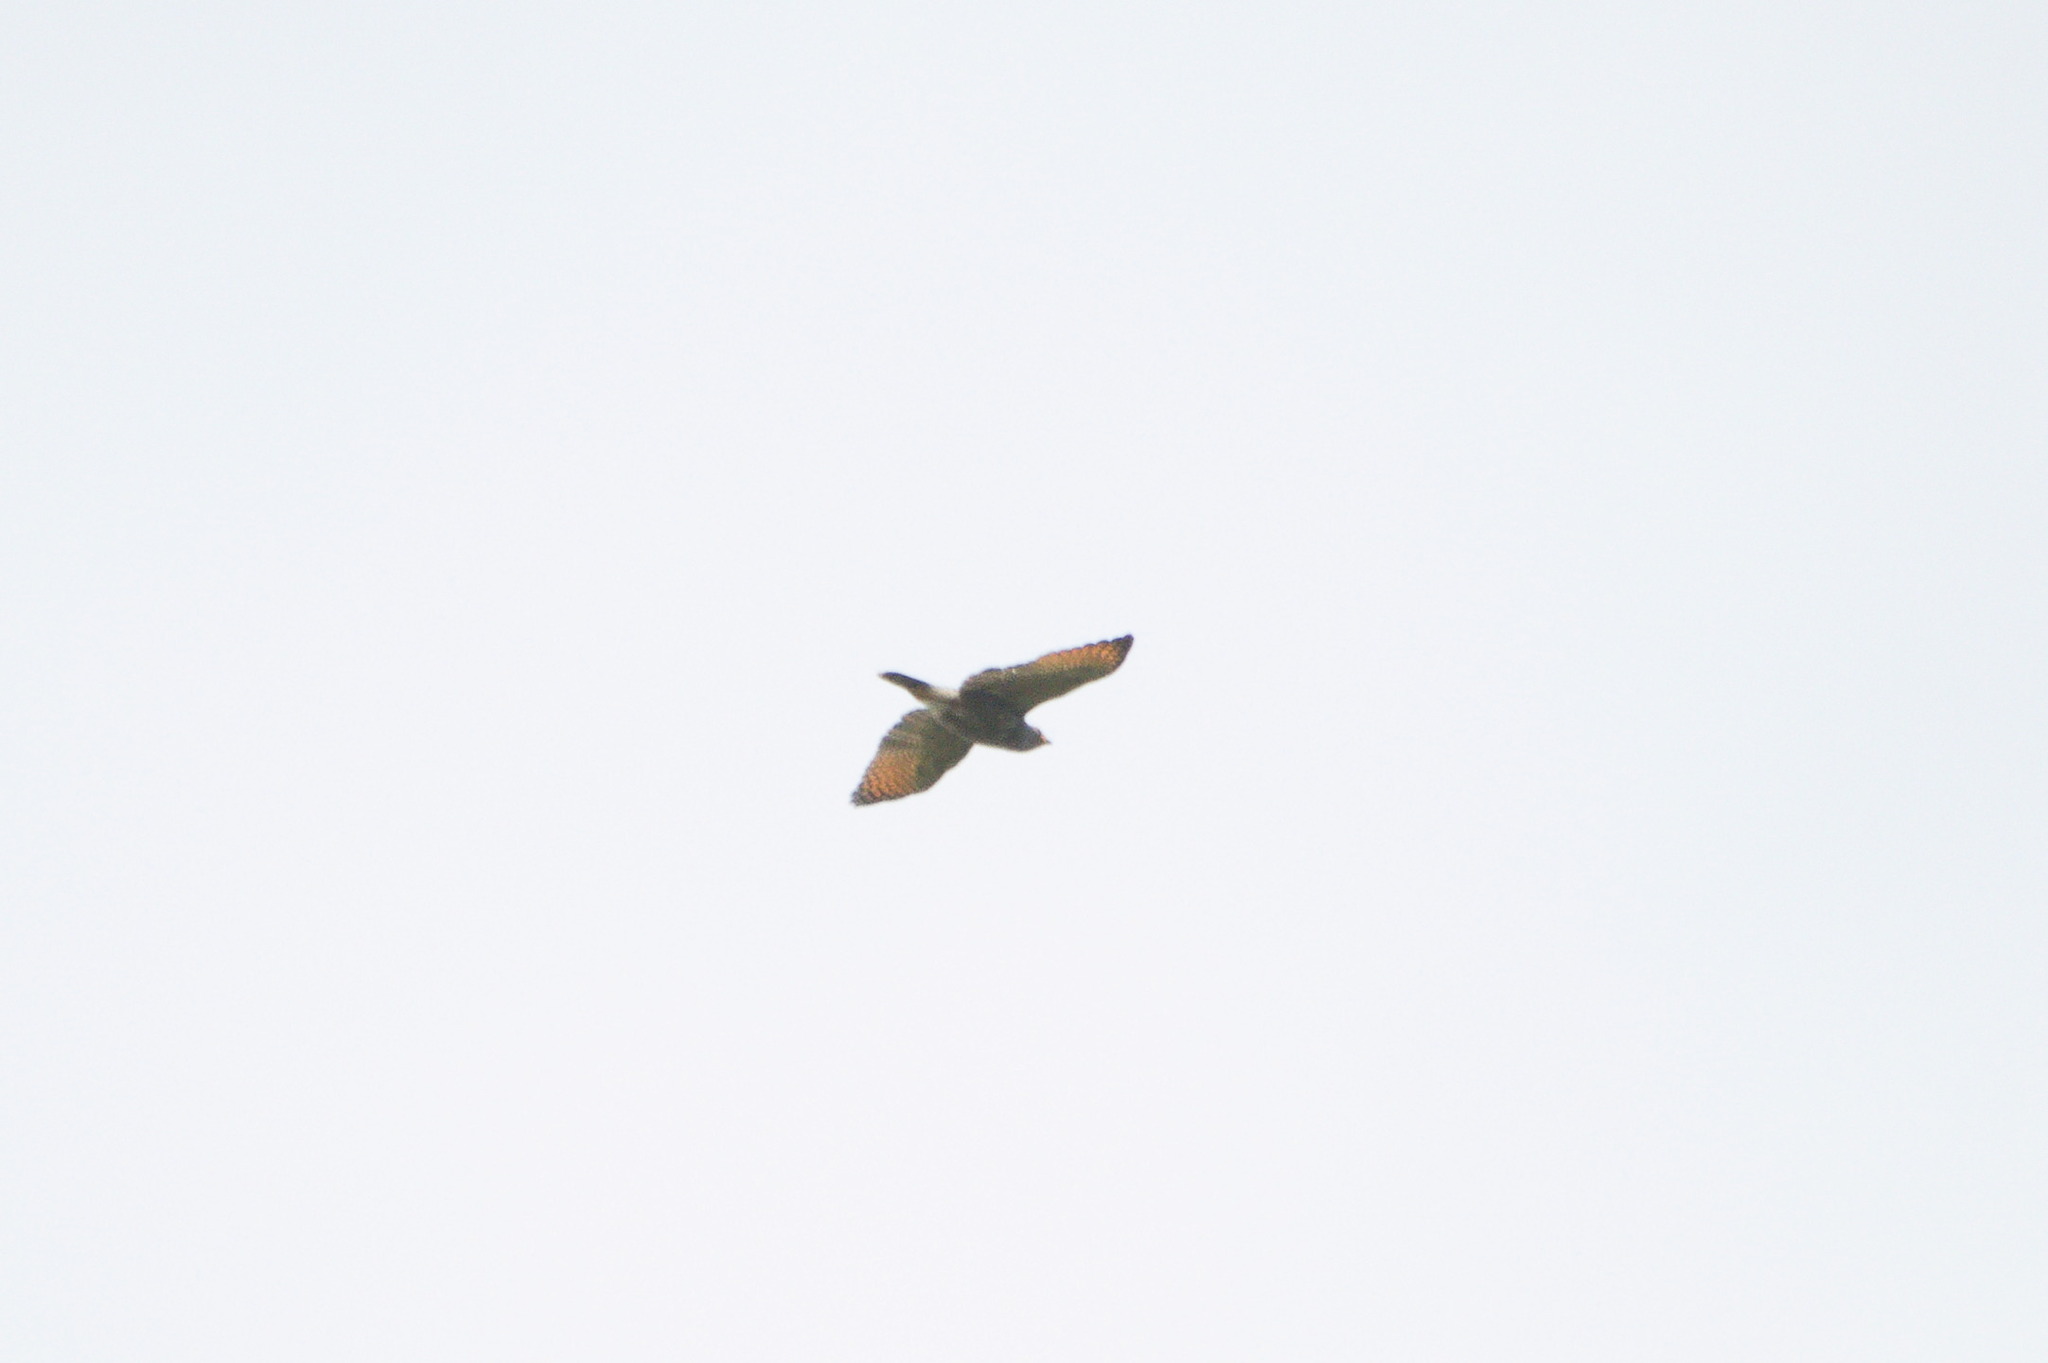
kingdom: Animalia
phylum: Chordata
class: Aves
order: Accipitriformes
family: Accipitridae
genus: Rupornis
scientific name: Rupornis magnirostris
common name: Roadside hawk
